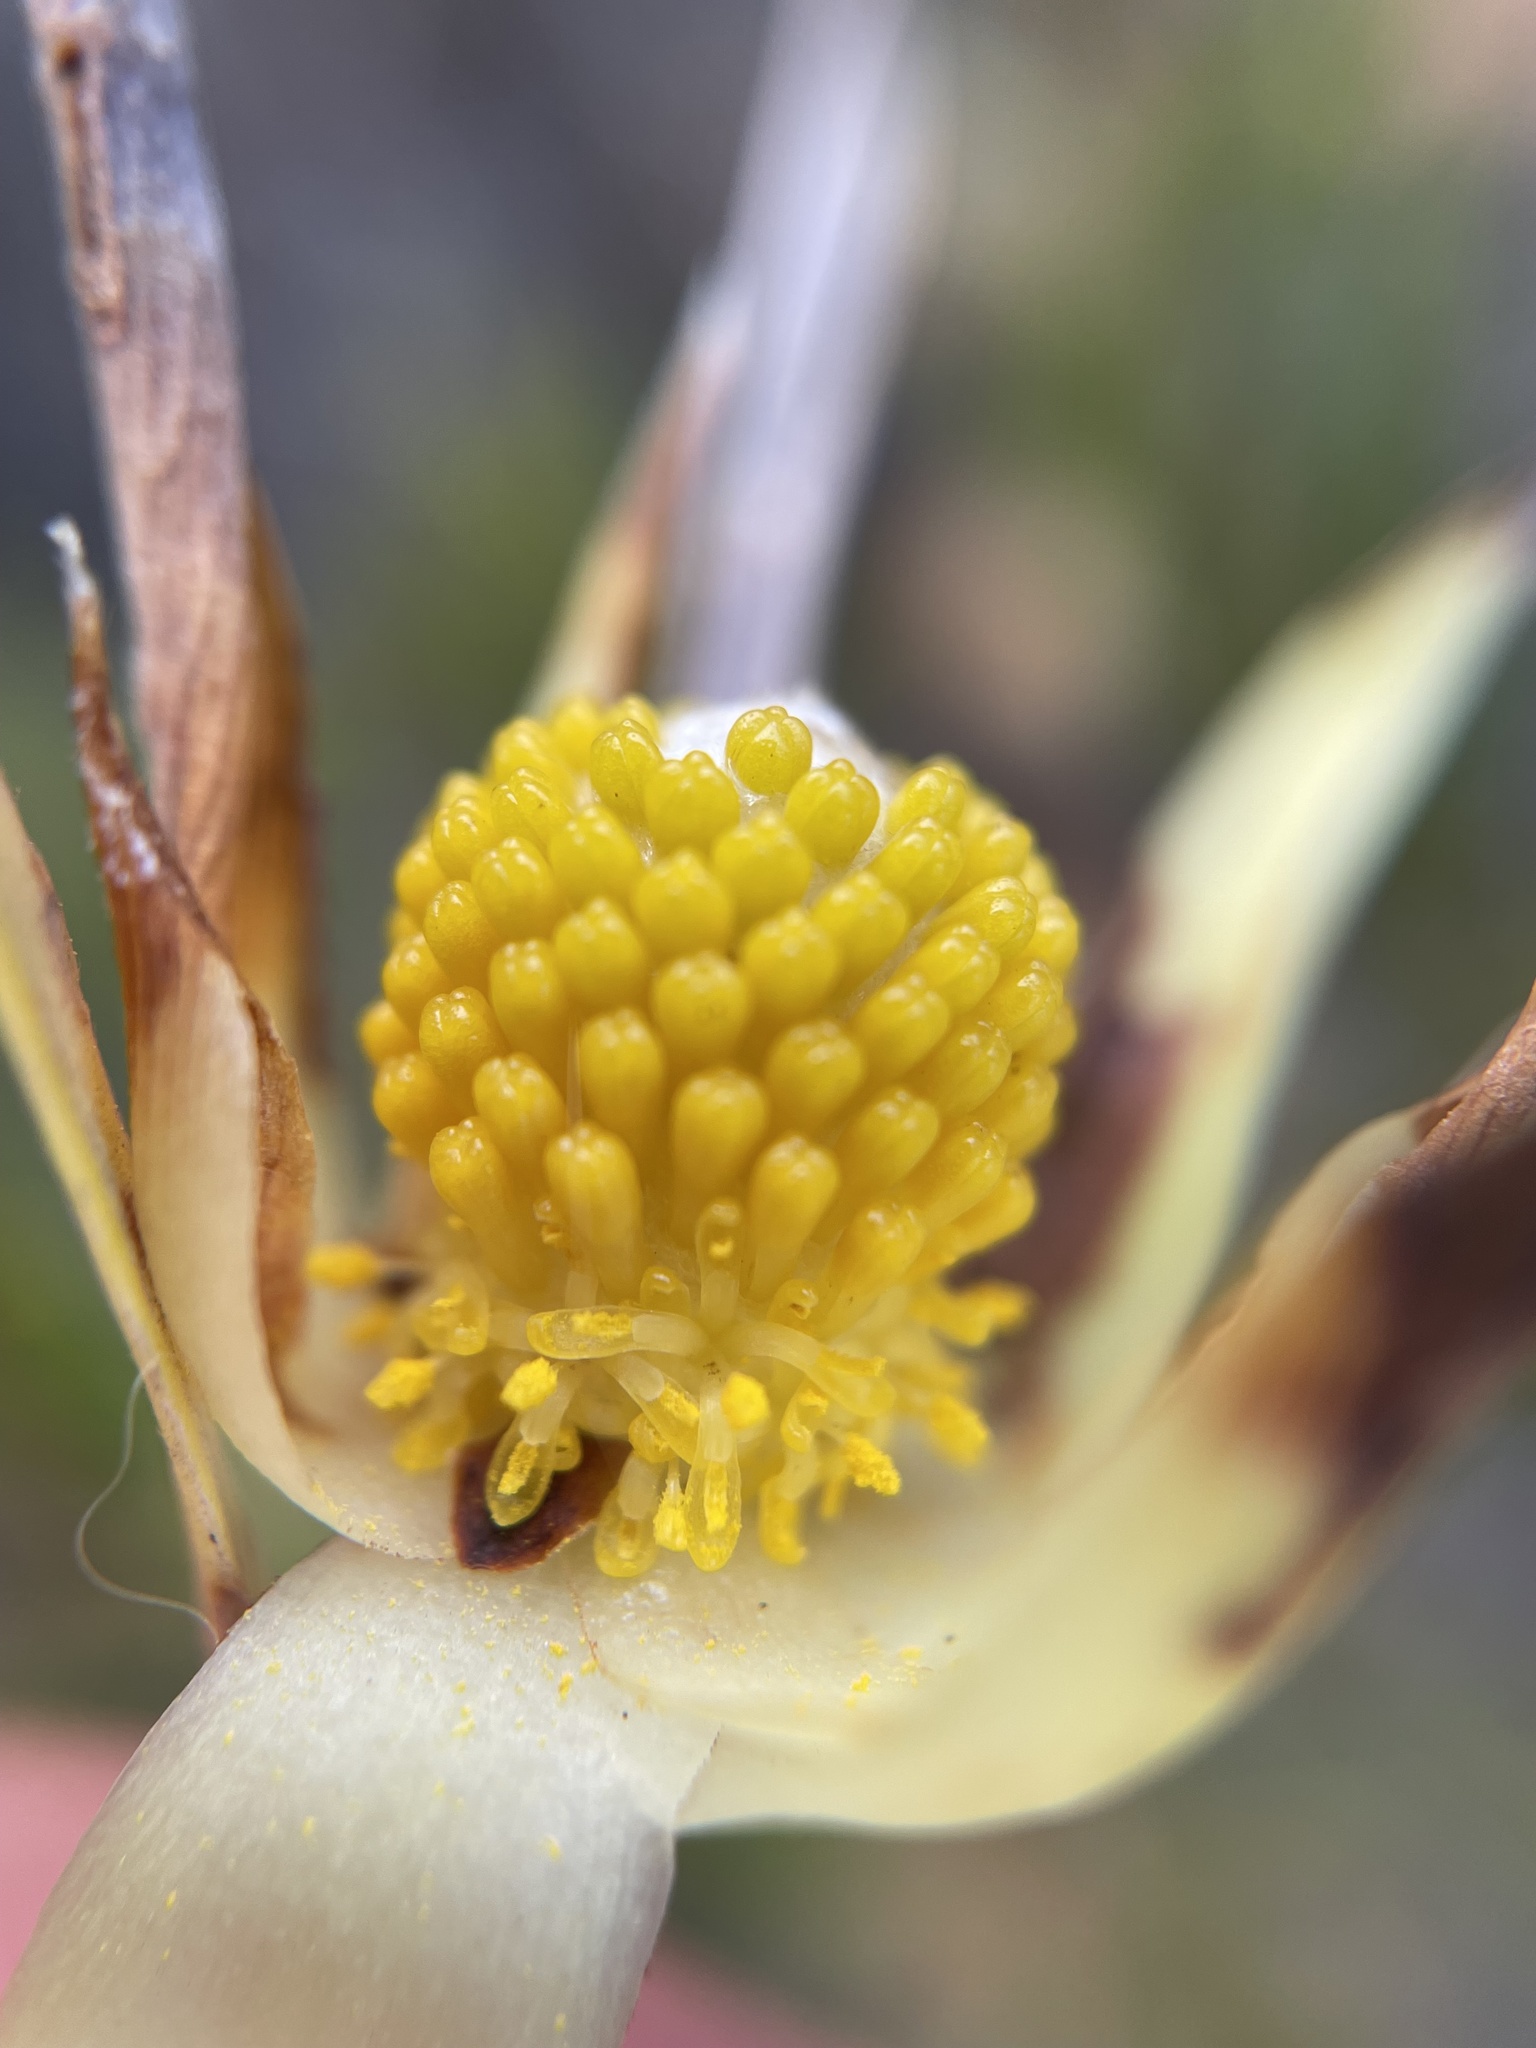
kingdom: Plantae
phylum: Tracheophyta
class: Magnoliopsida
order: Proteales
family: Proteaceae
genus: Leucadendron
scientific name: Leucadendron xanthoconus
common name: Sickle-leaf conebush
